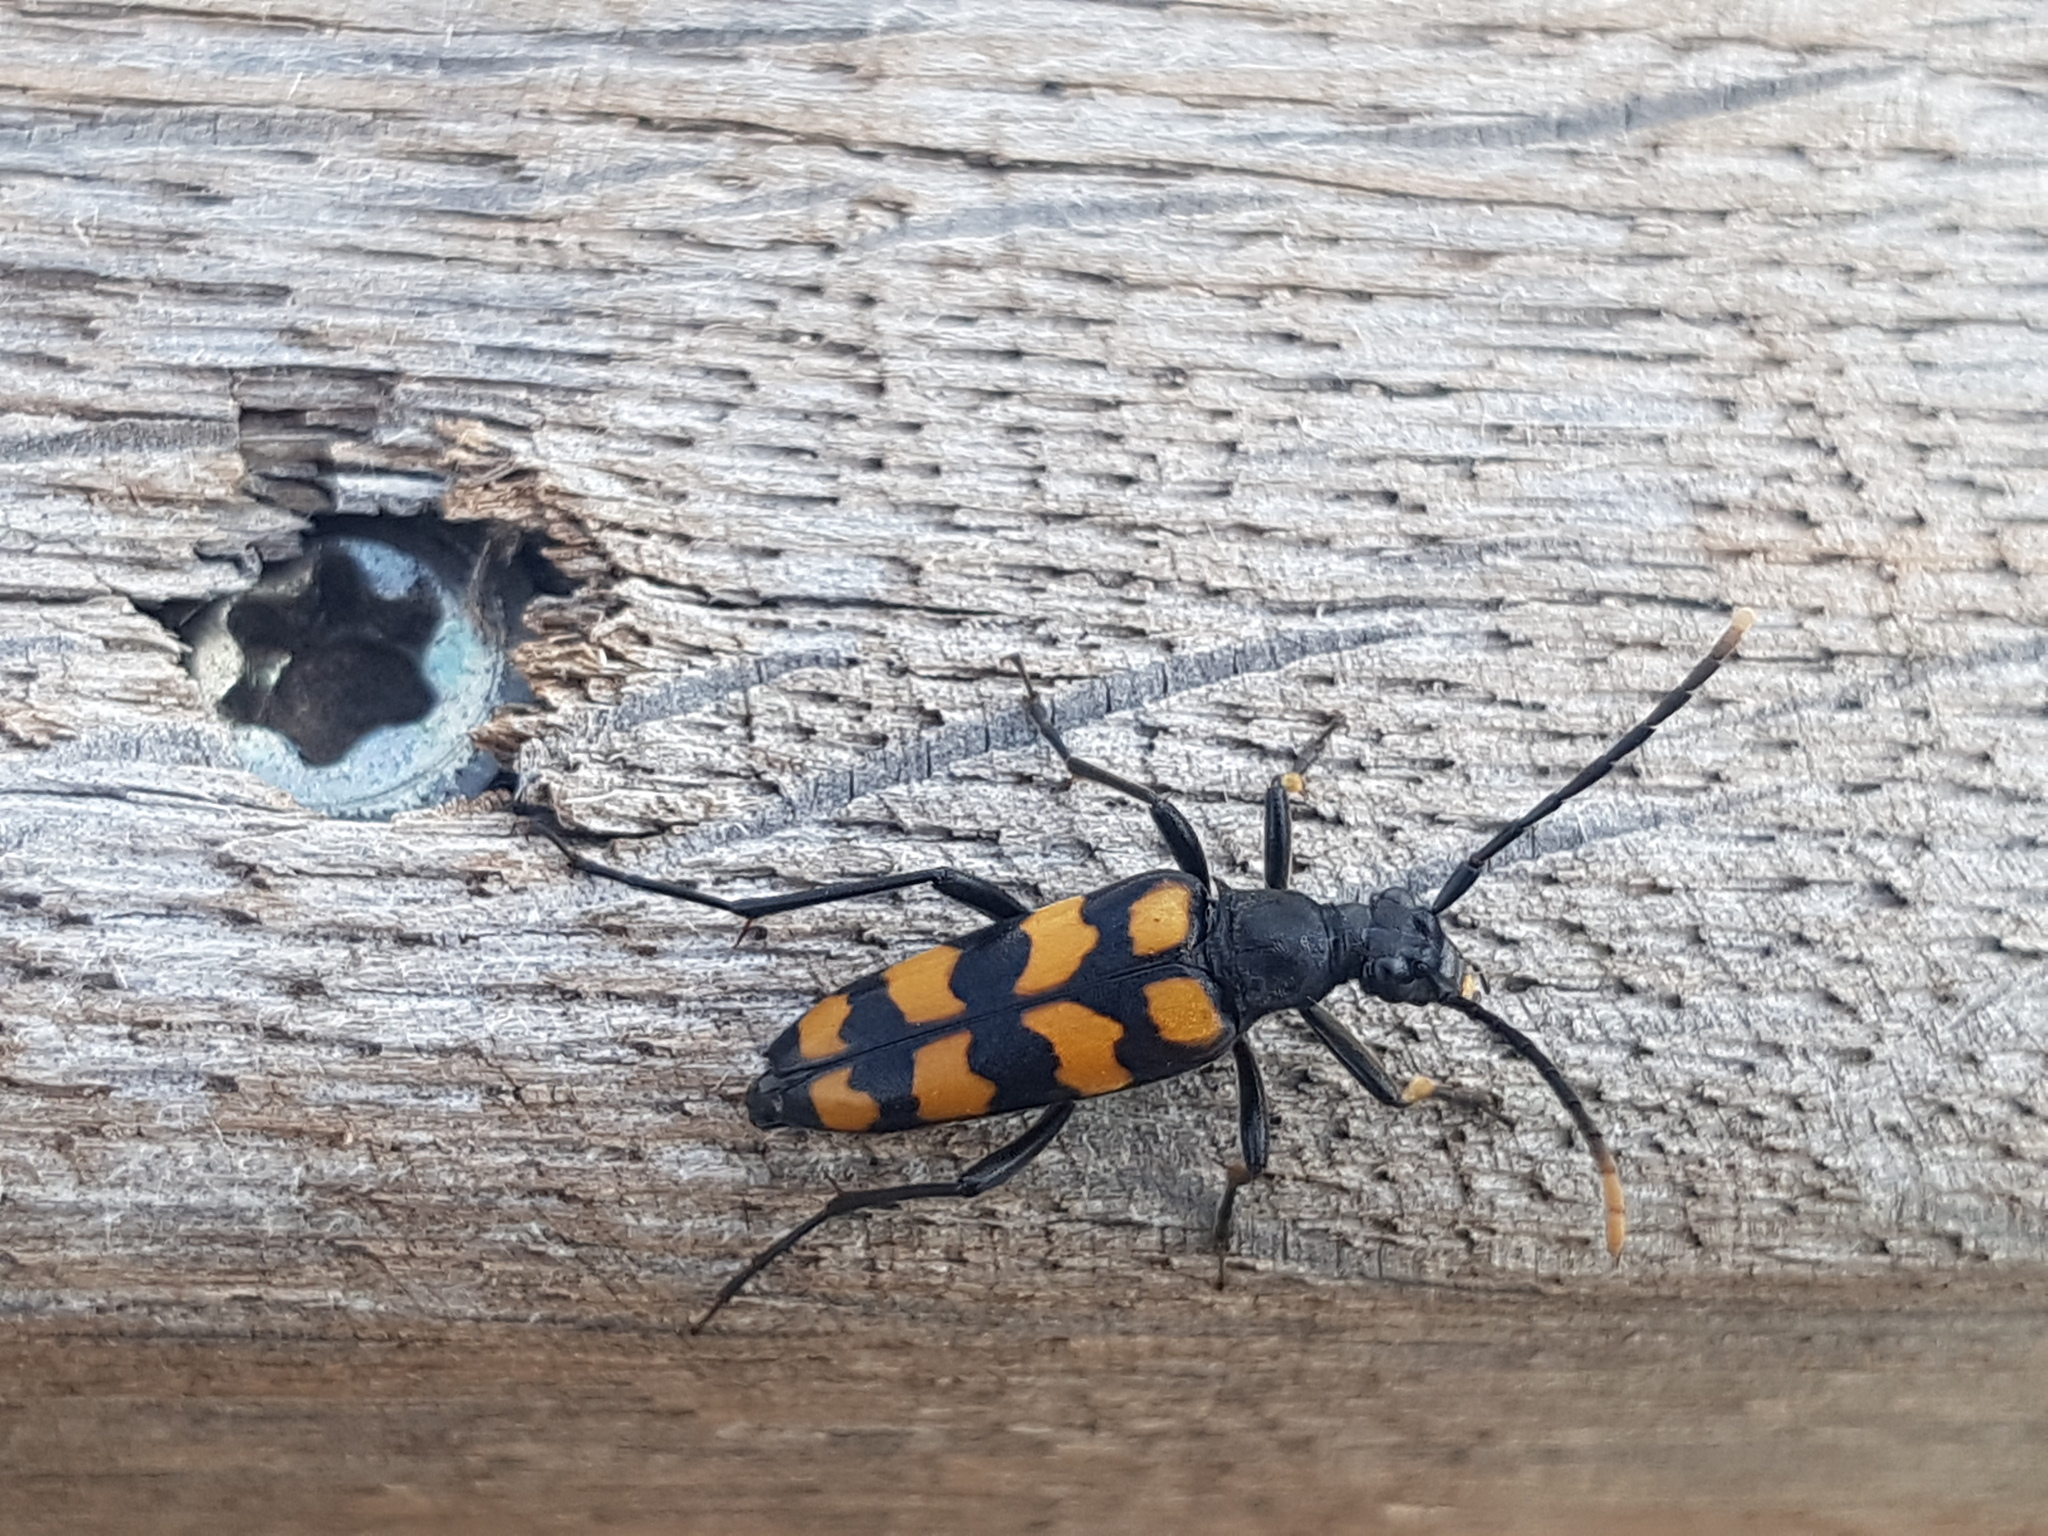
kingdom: Animalia
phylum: Arthropoda
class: Insecta
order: Coleoptera
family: Cerambycidae
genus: Leptura
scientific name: Leptura quadrifasciata
